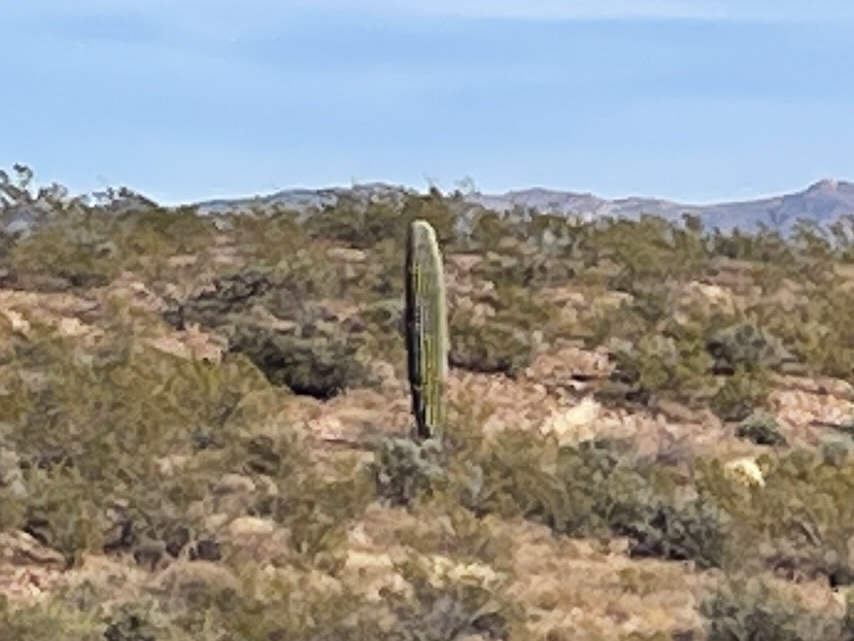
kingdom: Plantae
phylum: Tracheophyta
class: Magnoliopsida
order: Caryophyllales
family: Cactaceae
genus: Carnegiea
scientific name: Carnegiea gigantea
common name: Saguaro
